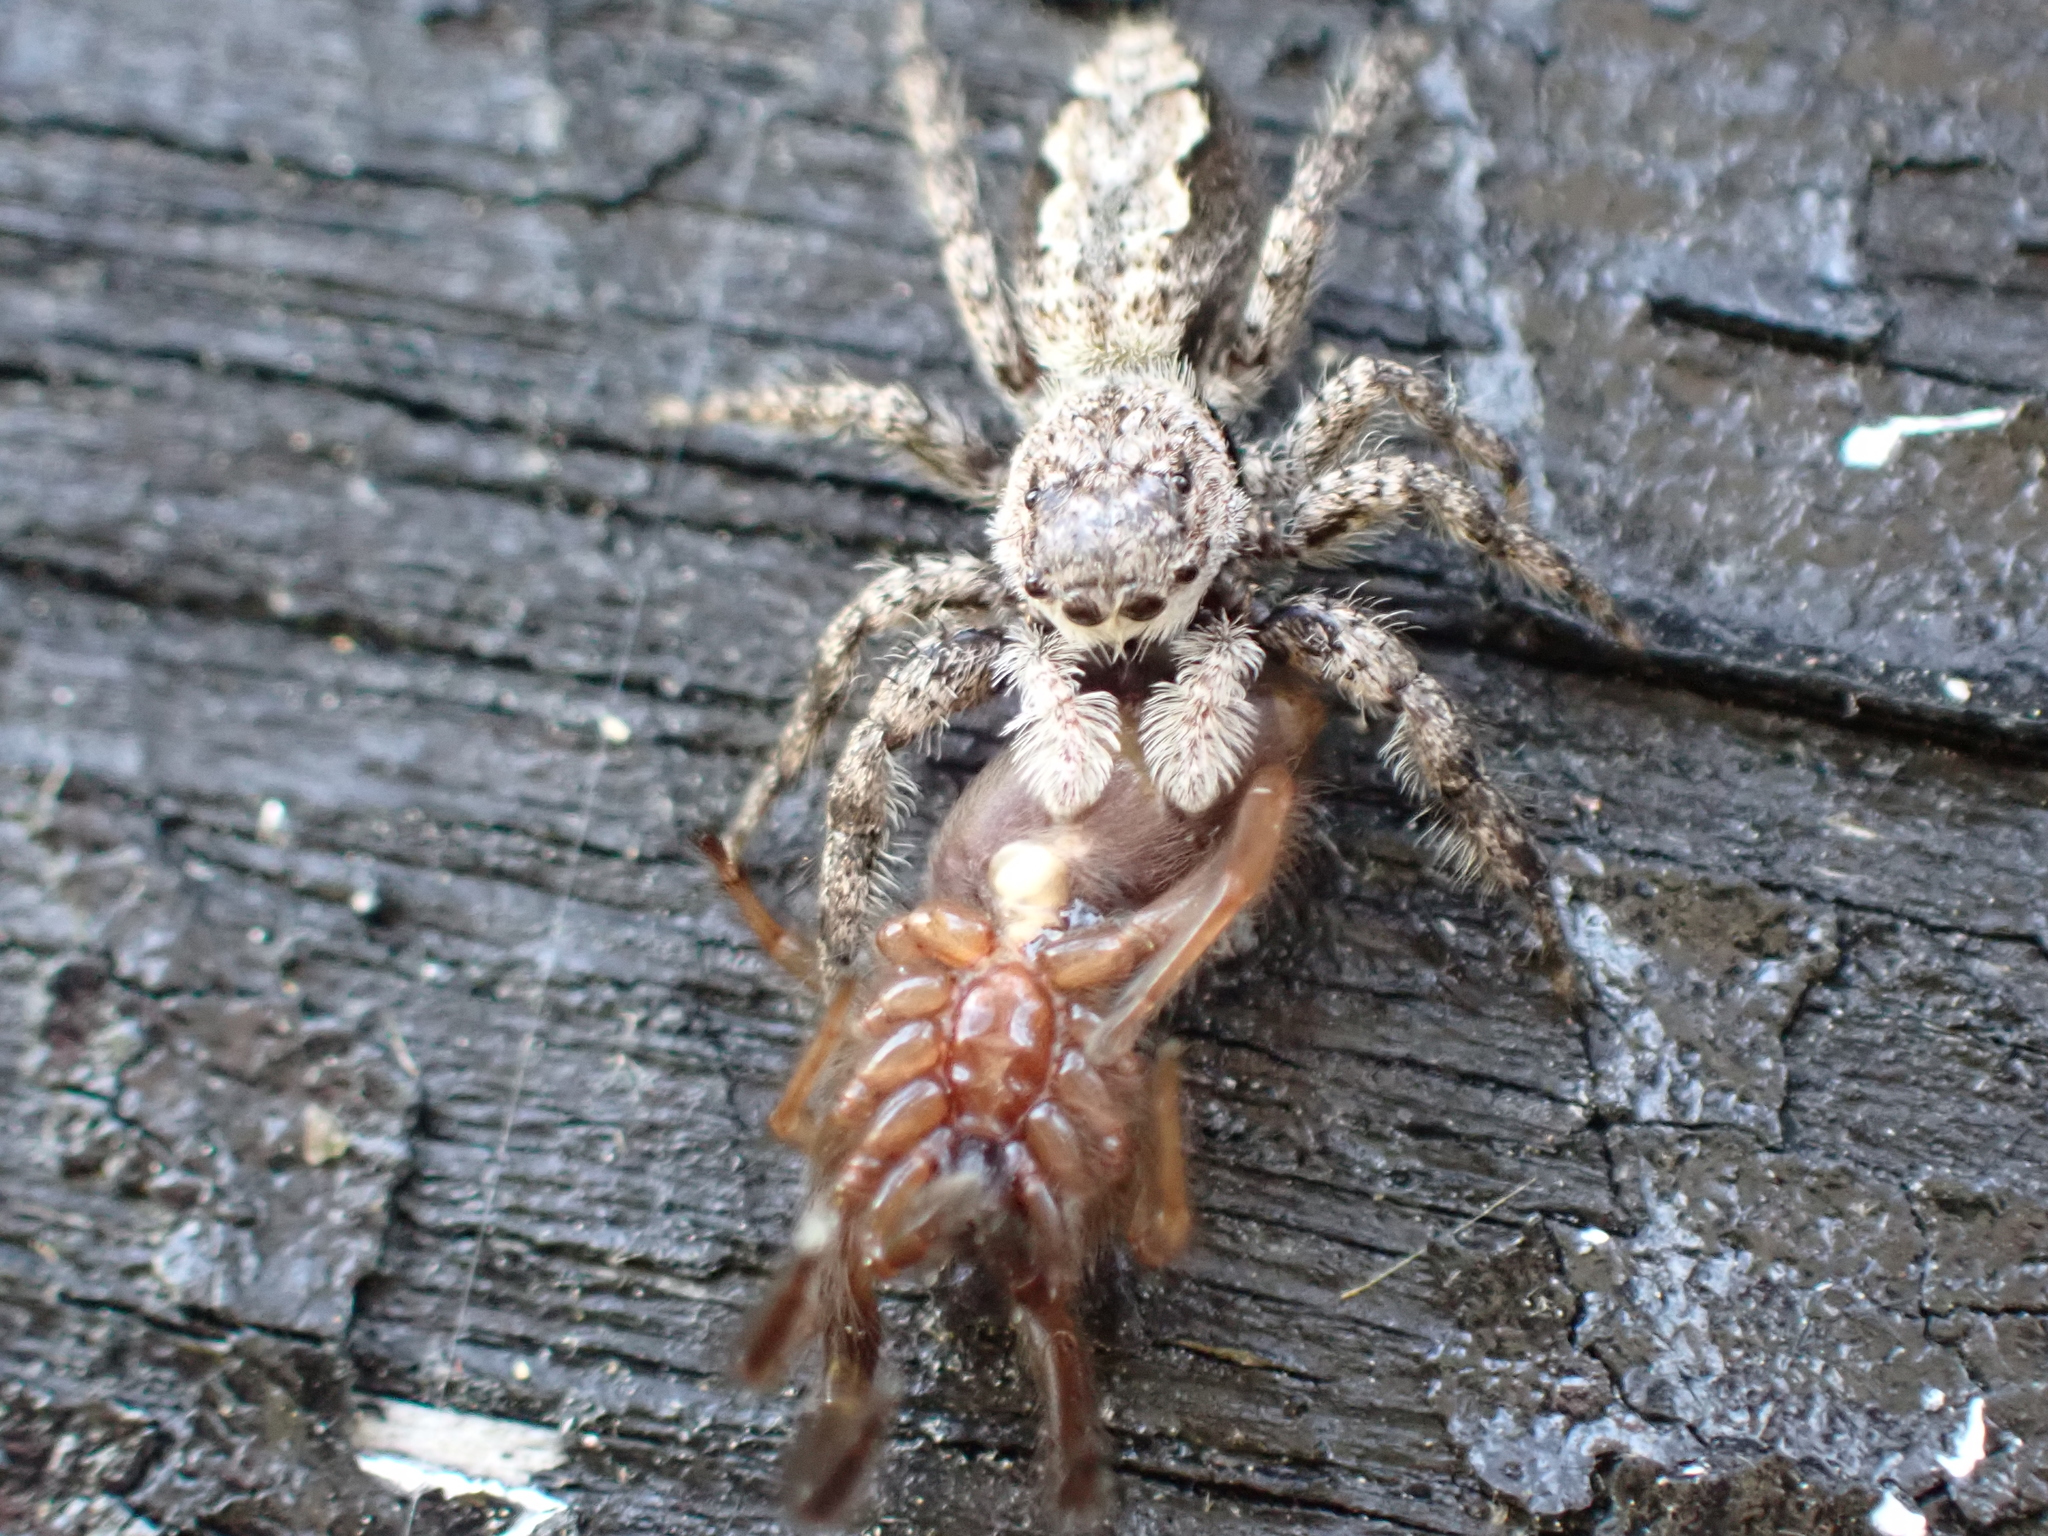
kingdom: Animalia
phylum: Arthropoda
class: Arachnida
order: Araneae
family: Salticidae
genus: Platycryptus
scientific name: Platycryptus undatus
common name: Tan jumping spider
